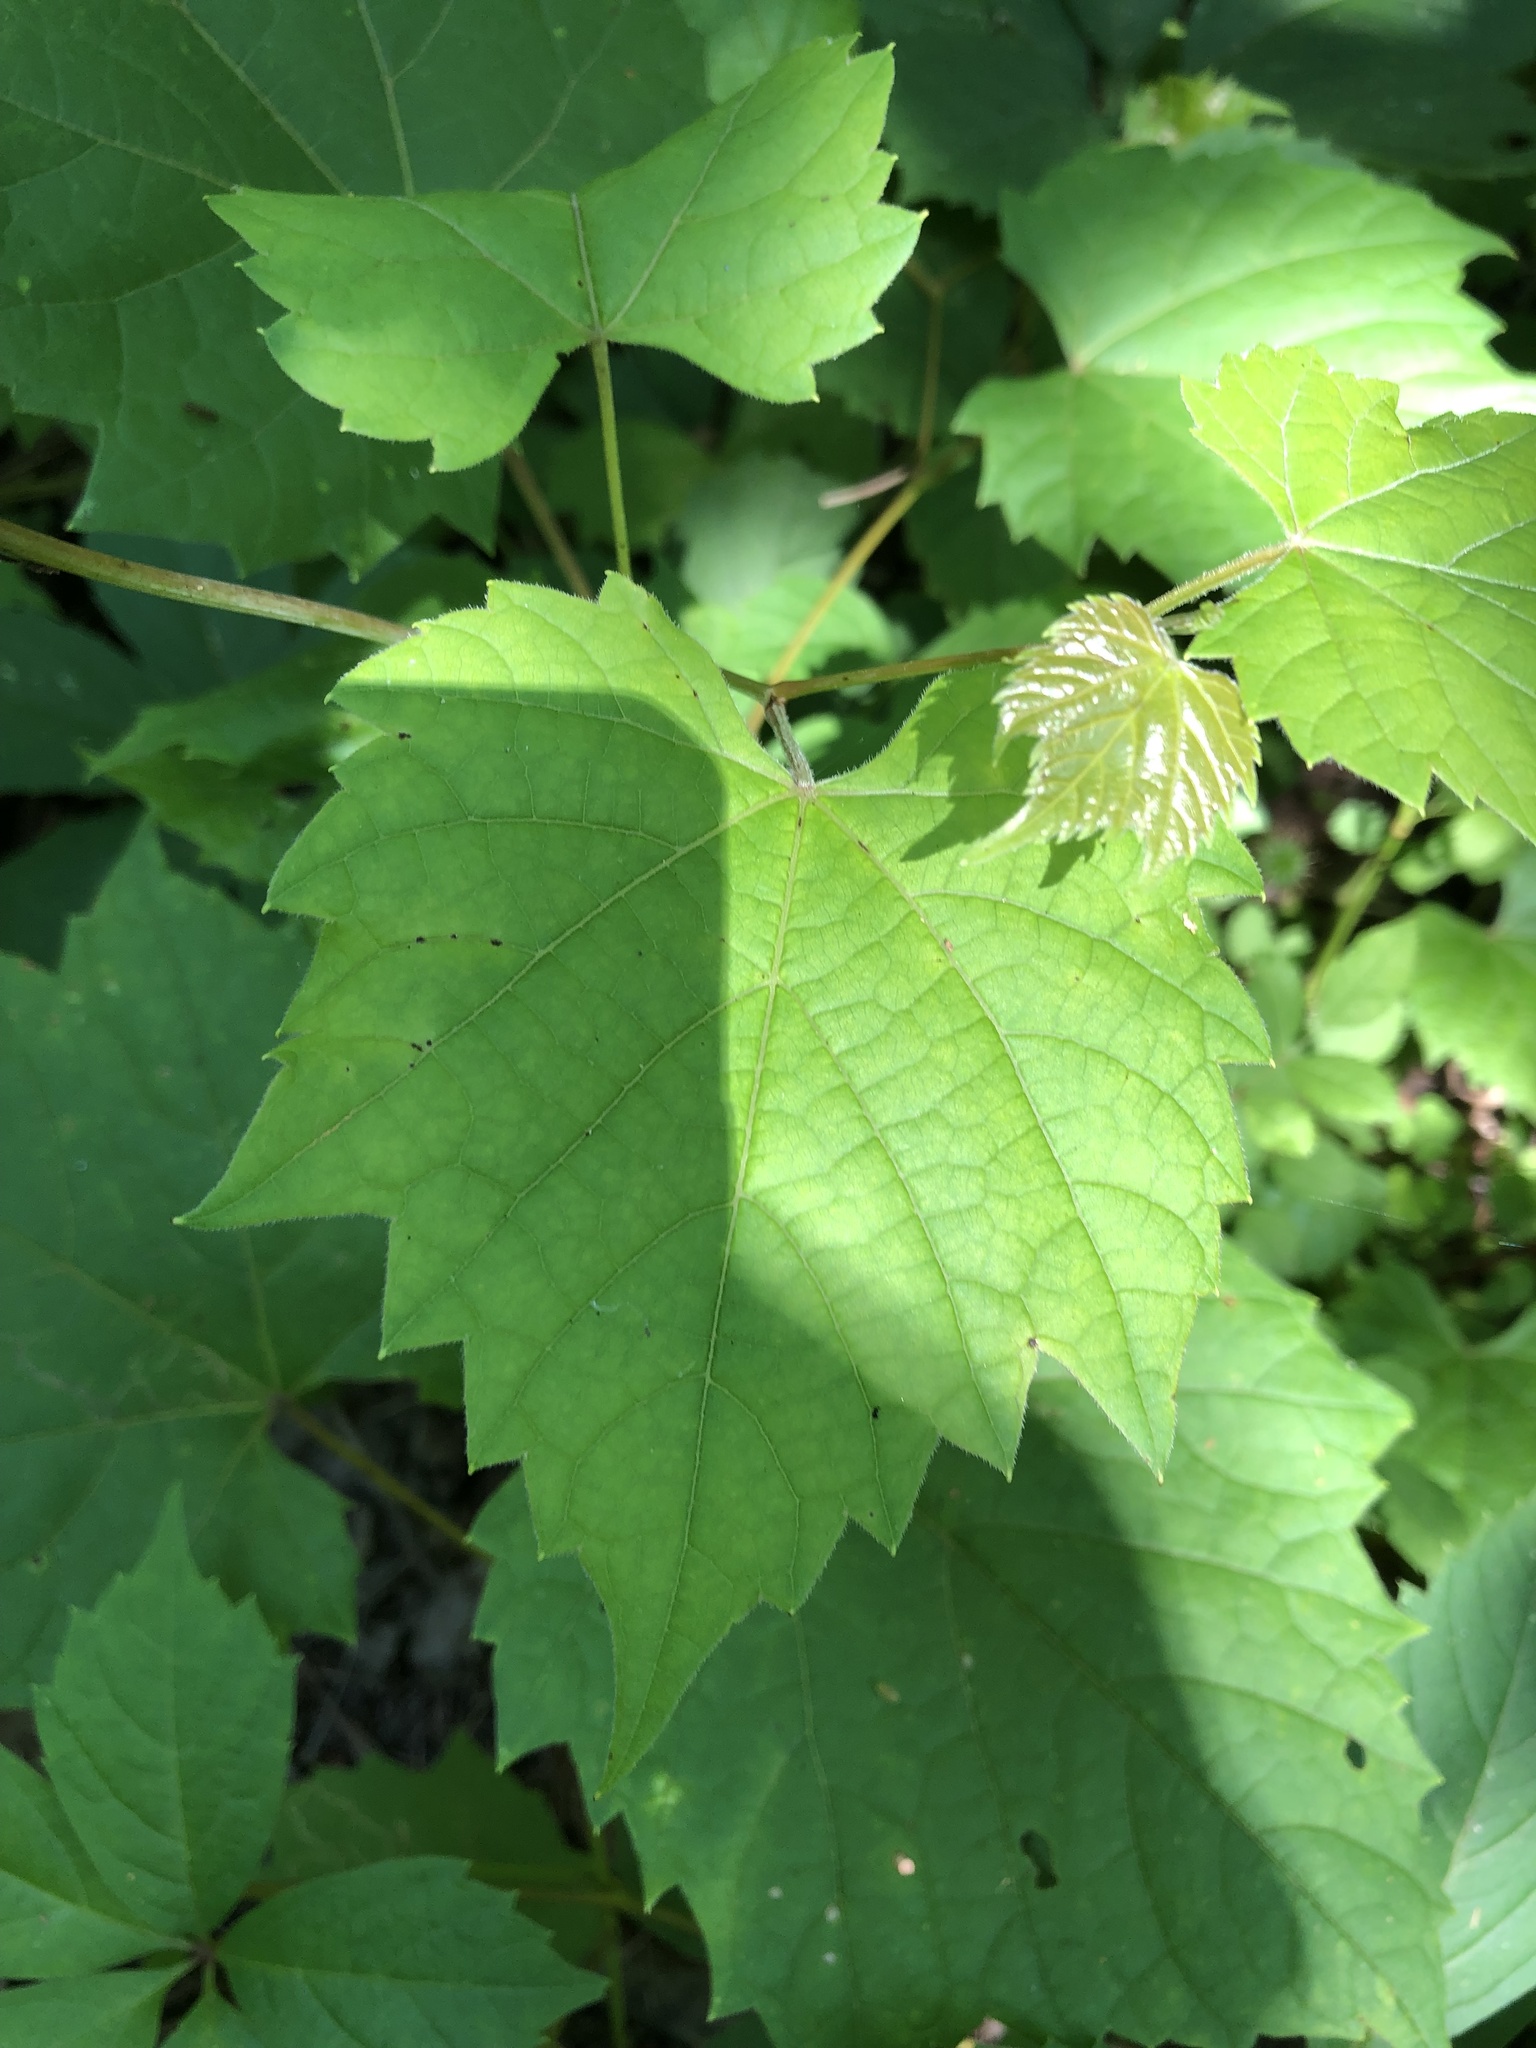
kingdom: Plantae
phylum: Tracheophyta
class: Magnoliopsida
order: Vitales
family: Vitaceae
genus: Vitis
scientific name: Vitis riparia
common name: Frost grape
